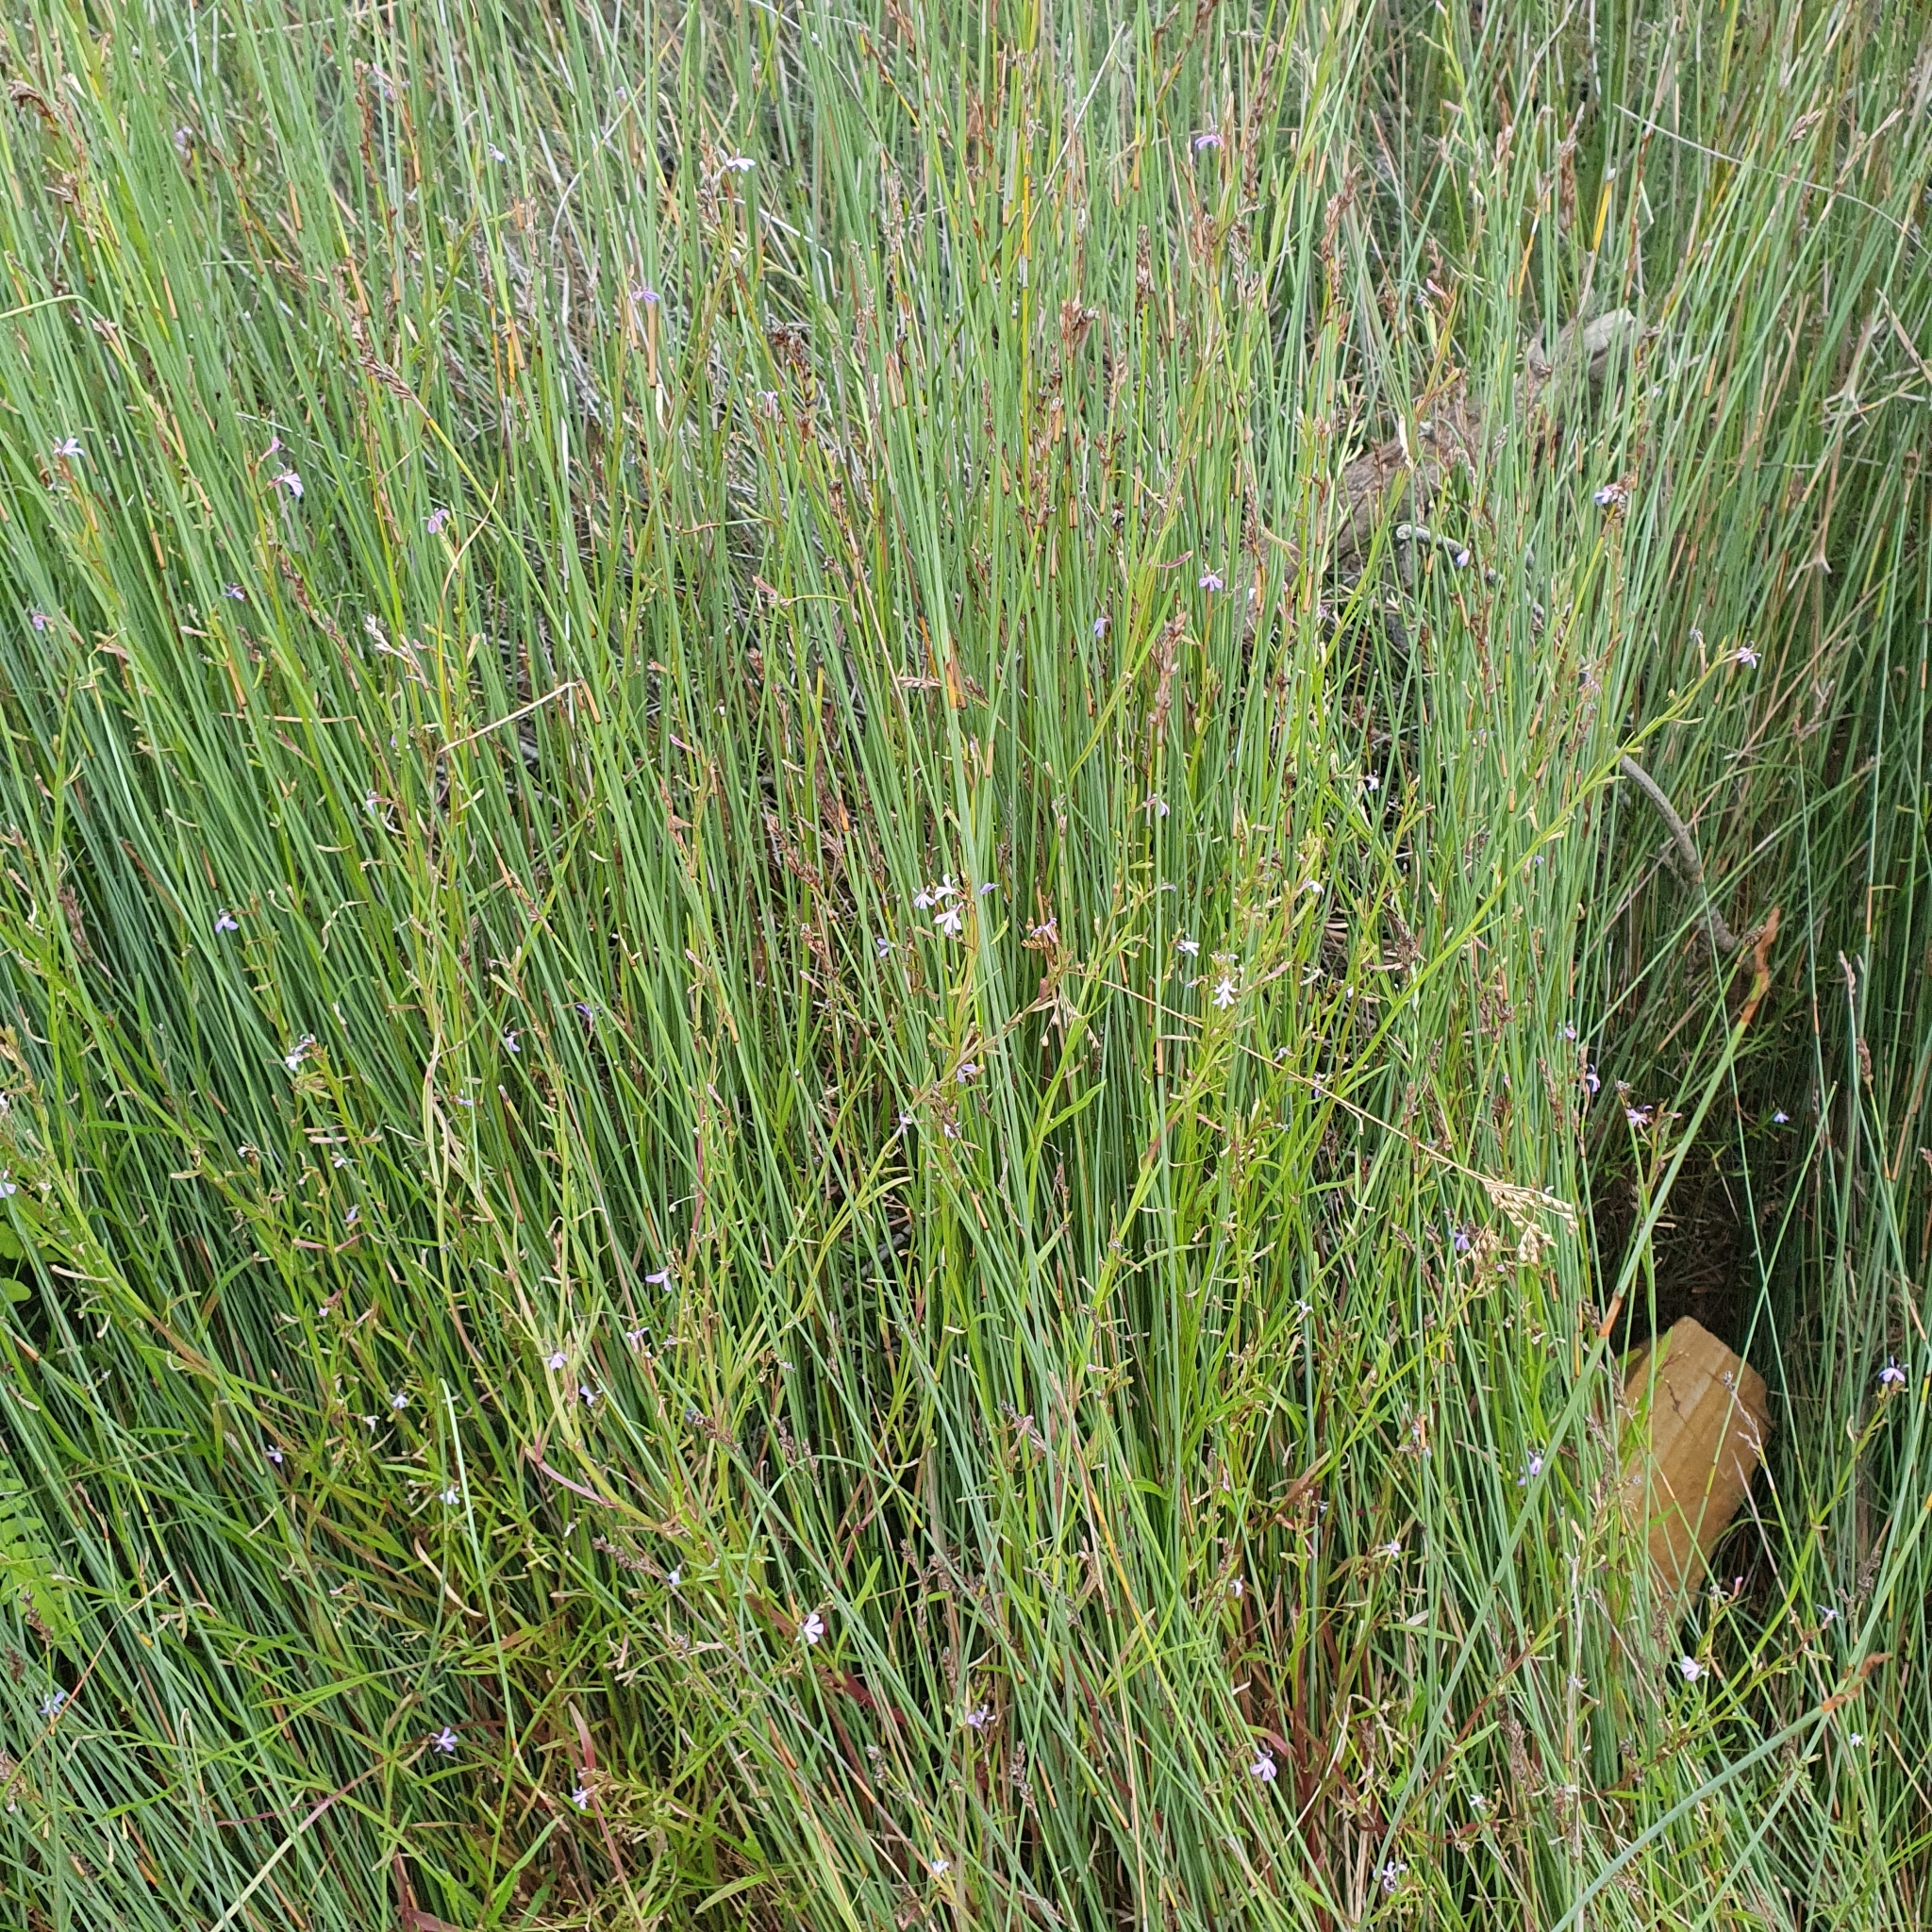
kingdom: Plantae
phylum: Tracheophyta
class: Magnoliopsida
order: Asterales
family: Campanulaceae
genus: Lobelia
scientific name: Lobelia anceps
